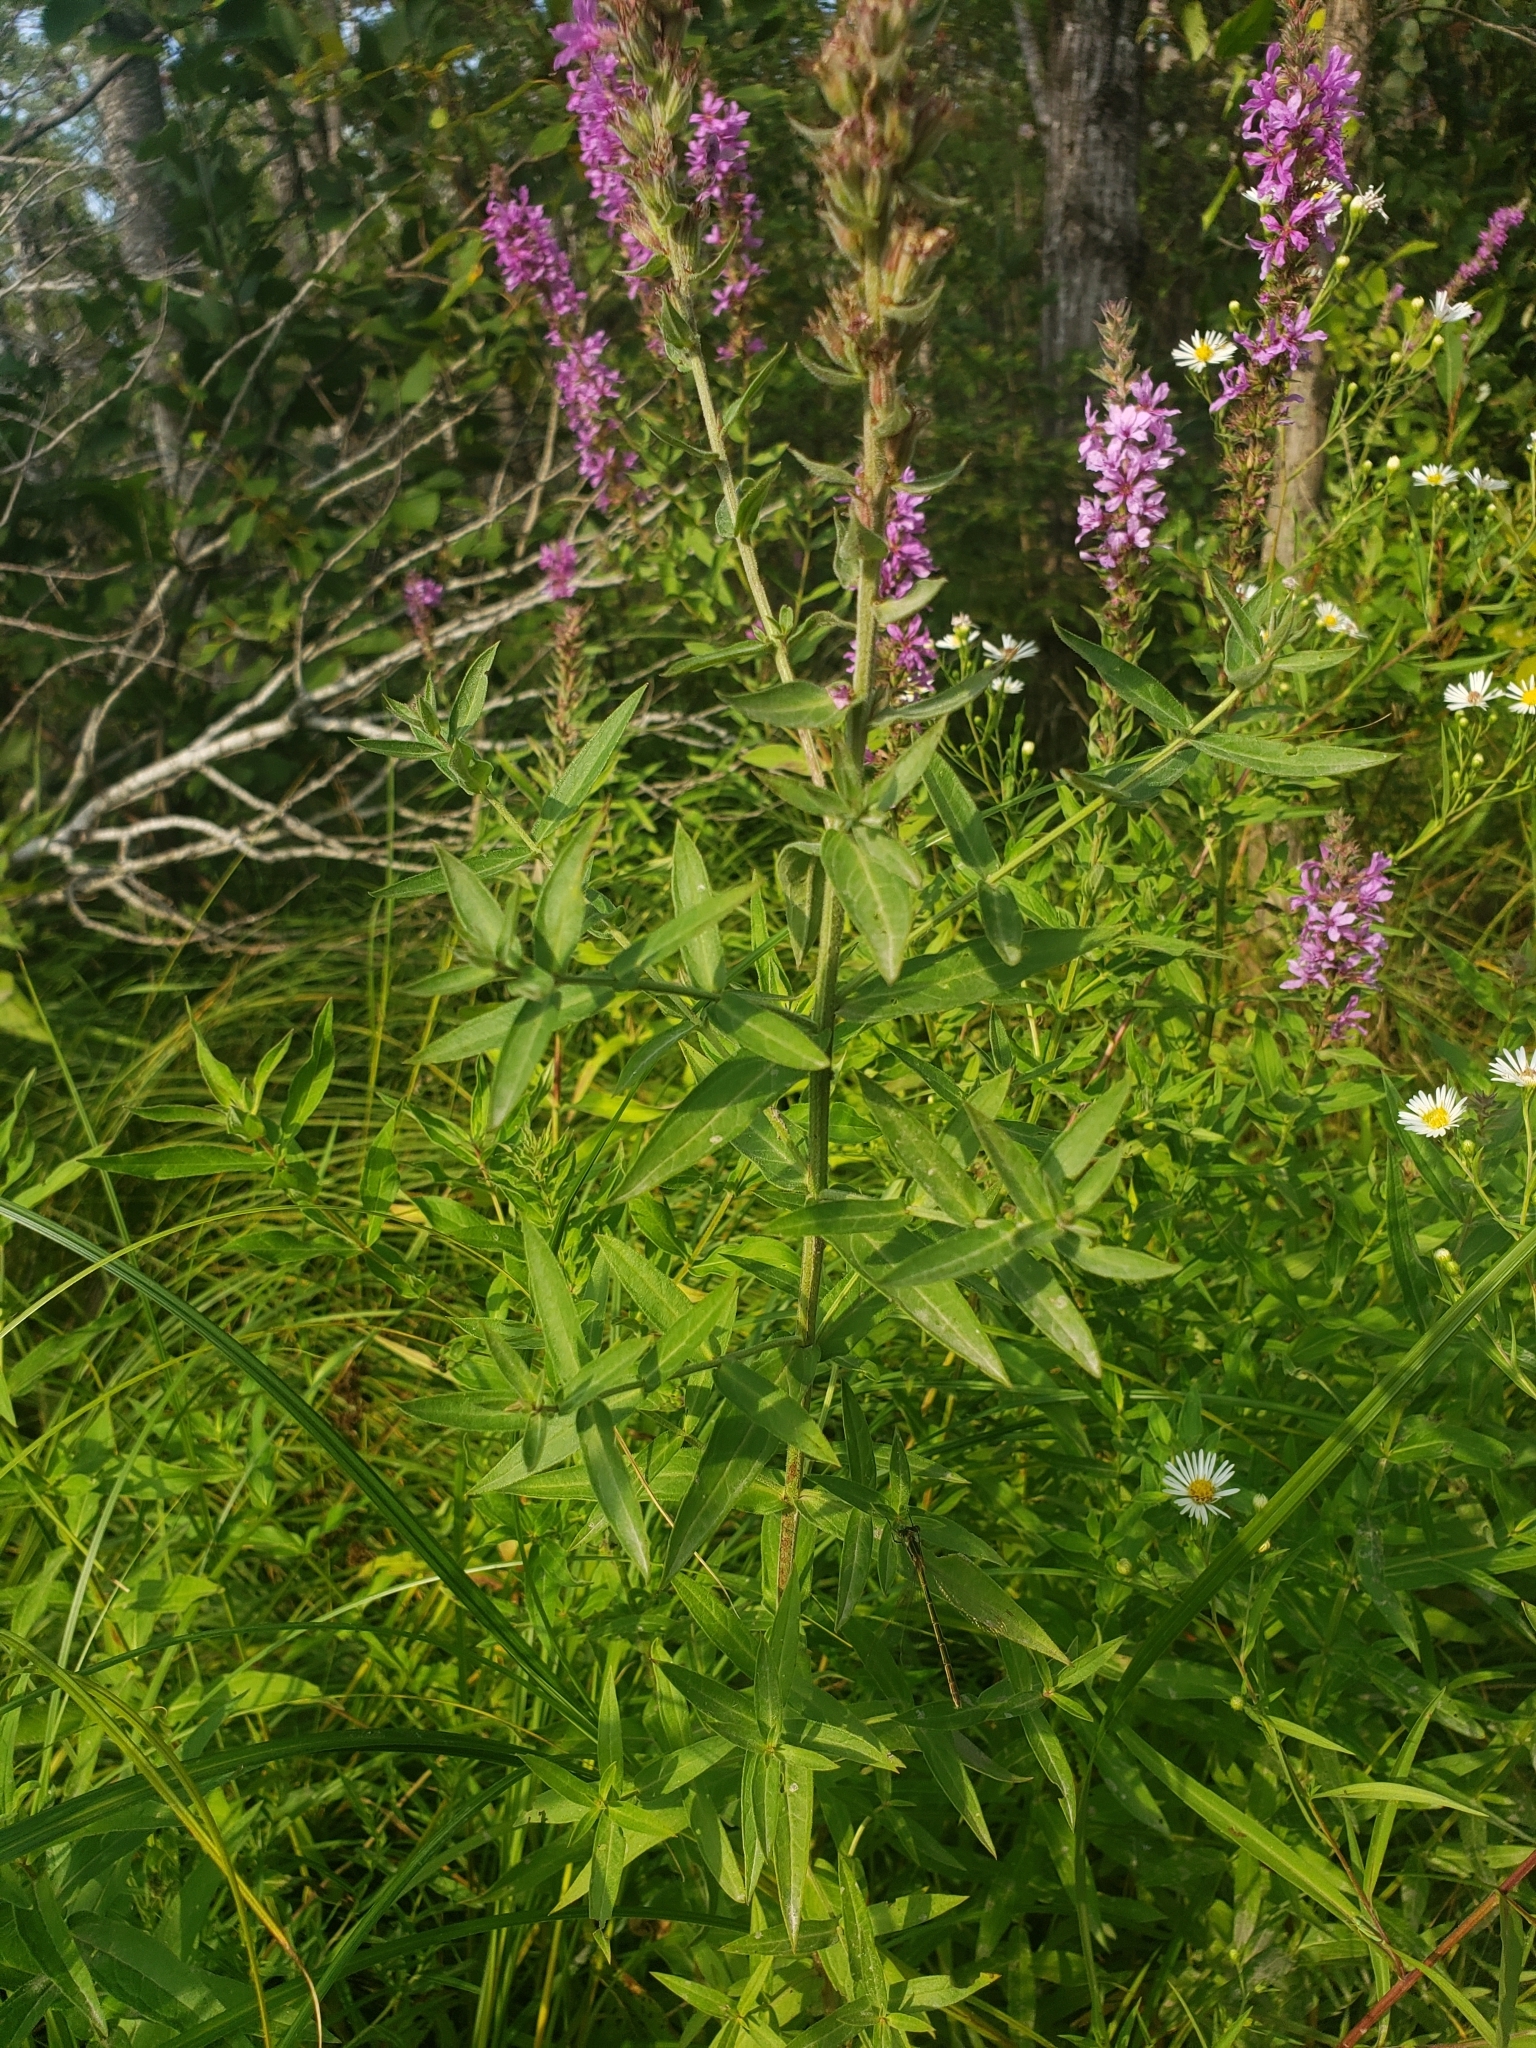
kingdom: Plantae
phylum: Tracheophyta
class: Magnoliopsida
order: Myrtales
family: Lythraceae
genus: Lythrum
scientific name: Lythrum salicaria
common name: Purple loosestrife
